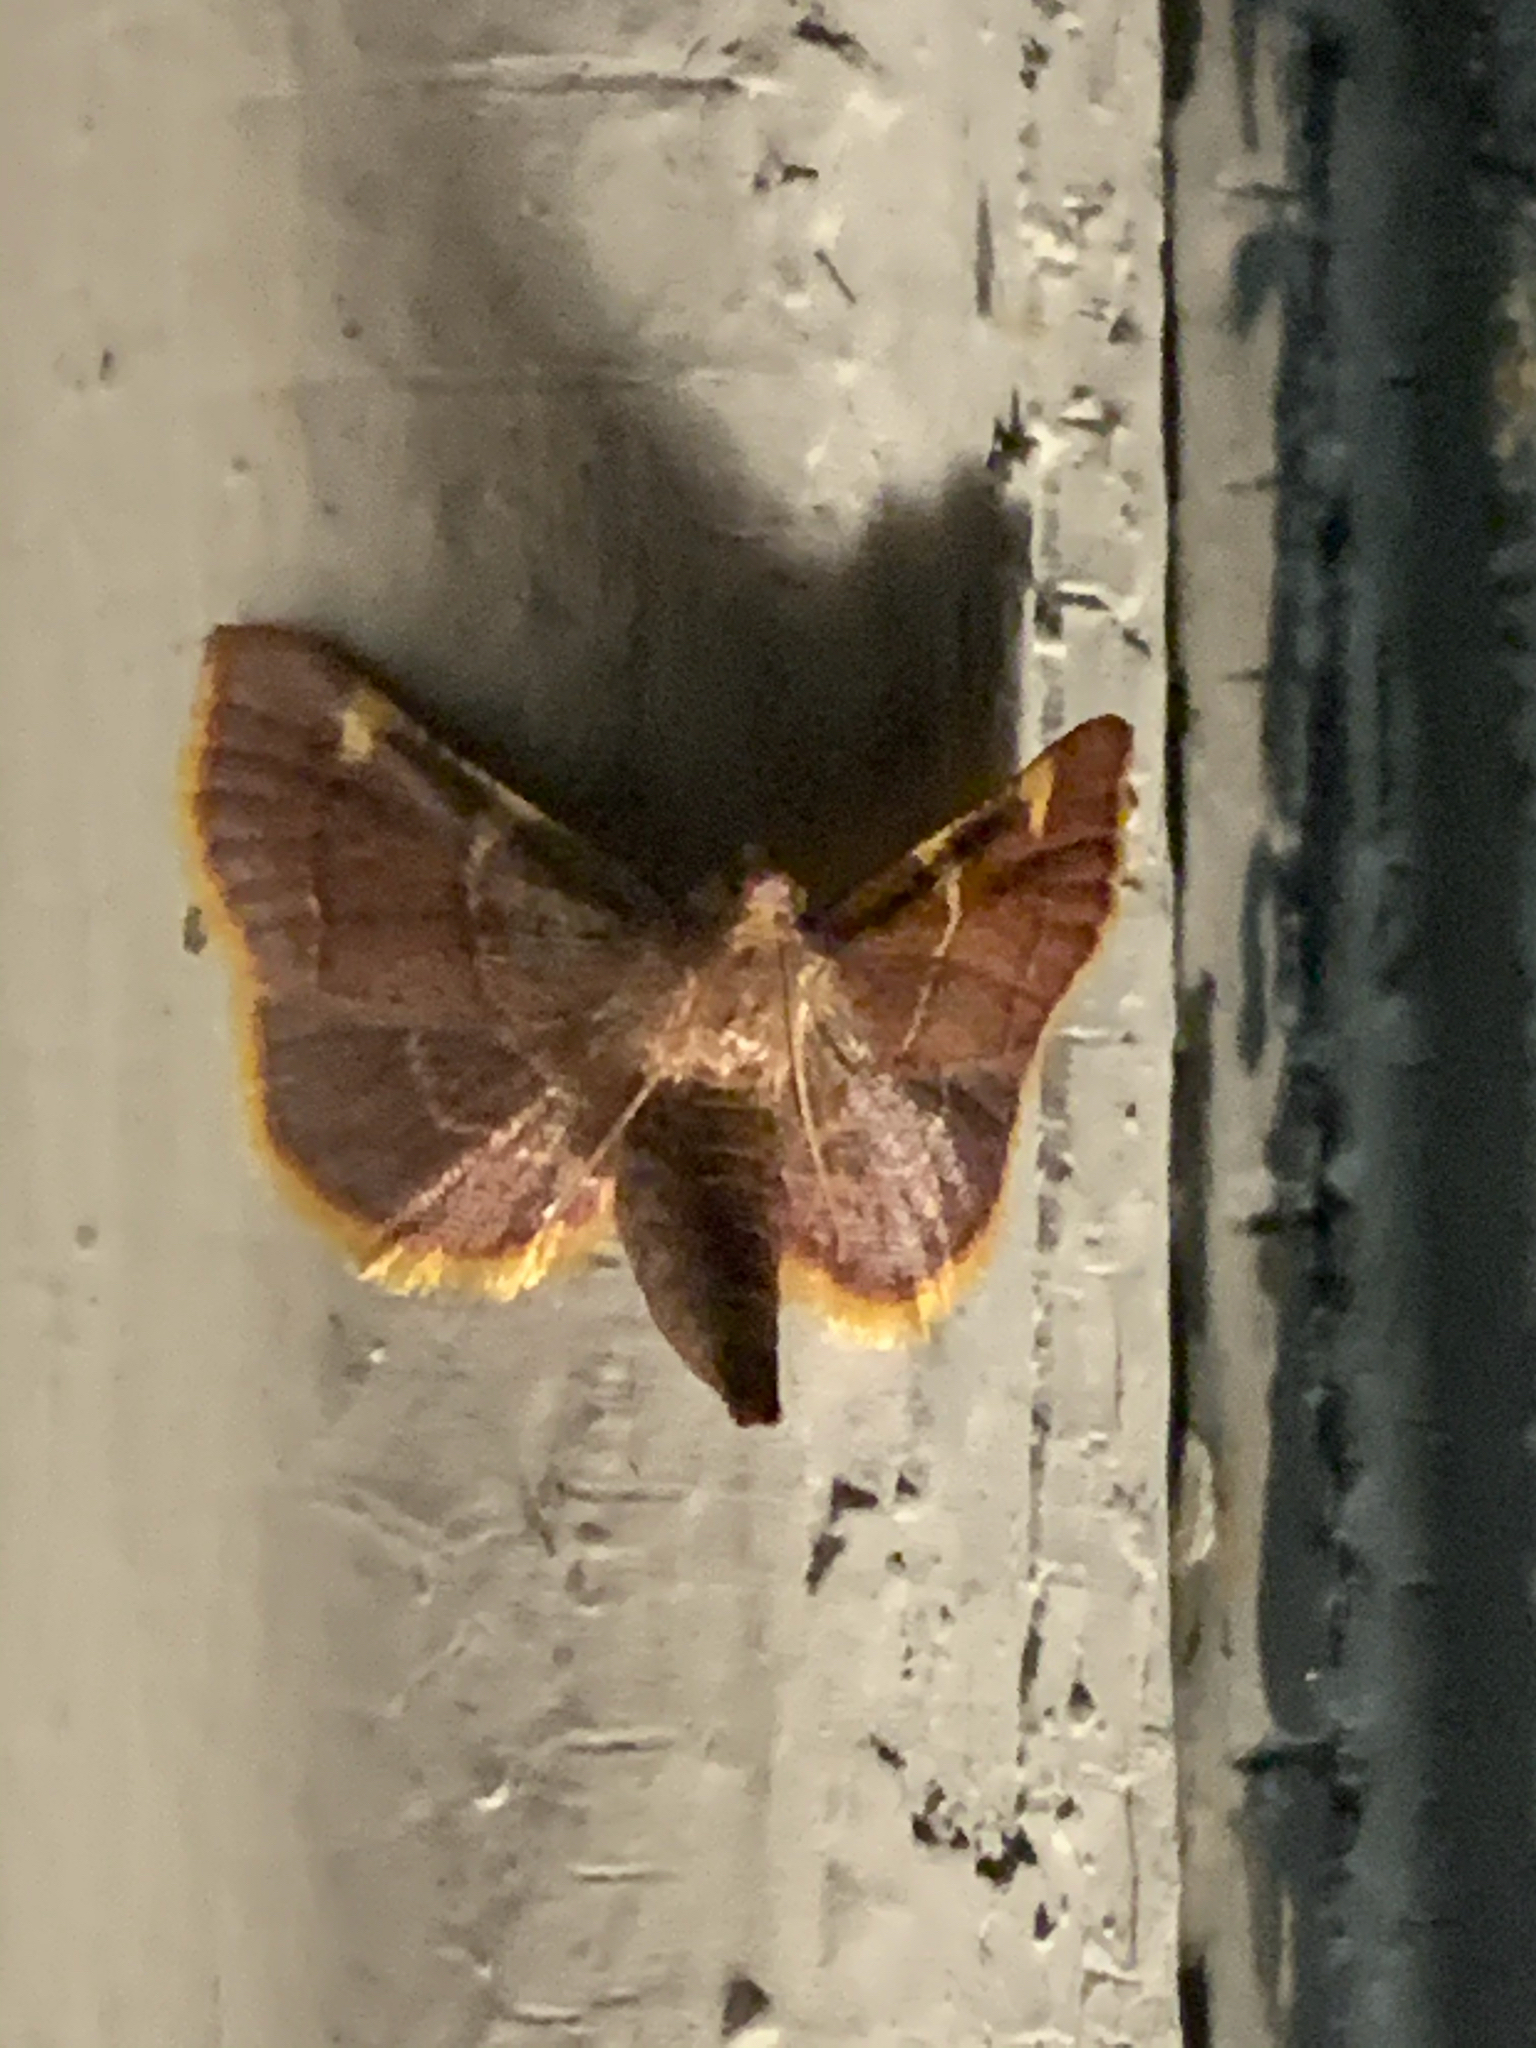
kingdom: Animalia
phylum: Arthropoda
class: Insecta
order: Lepidoptera
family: Pyralidae
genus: Hypsopygia
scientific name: Hypsopygia olinalis
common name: Yellow-fringed dolichomia moth
